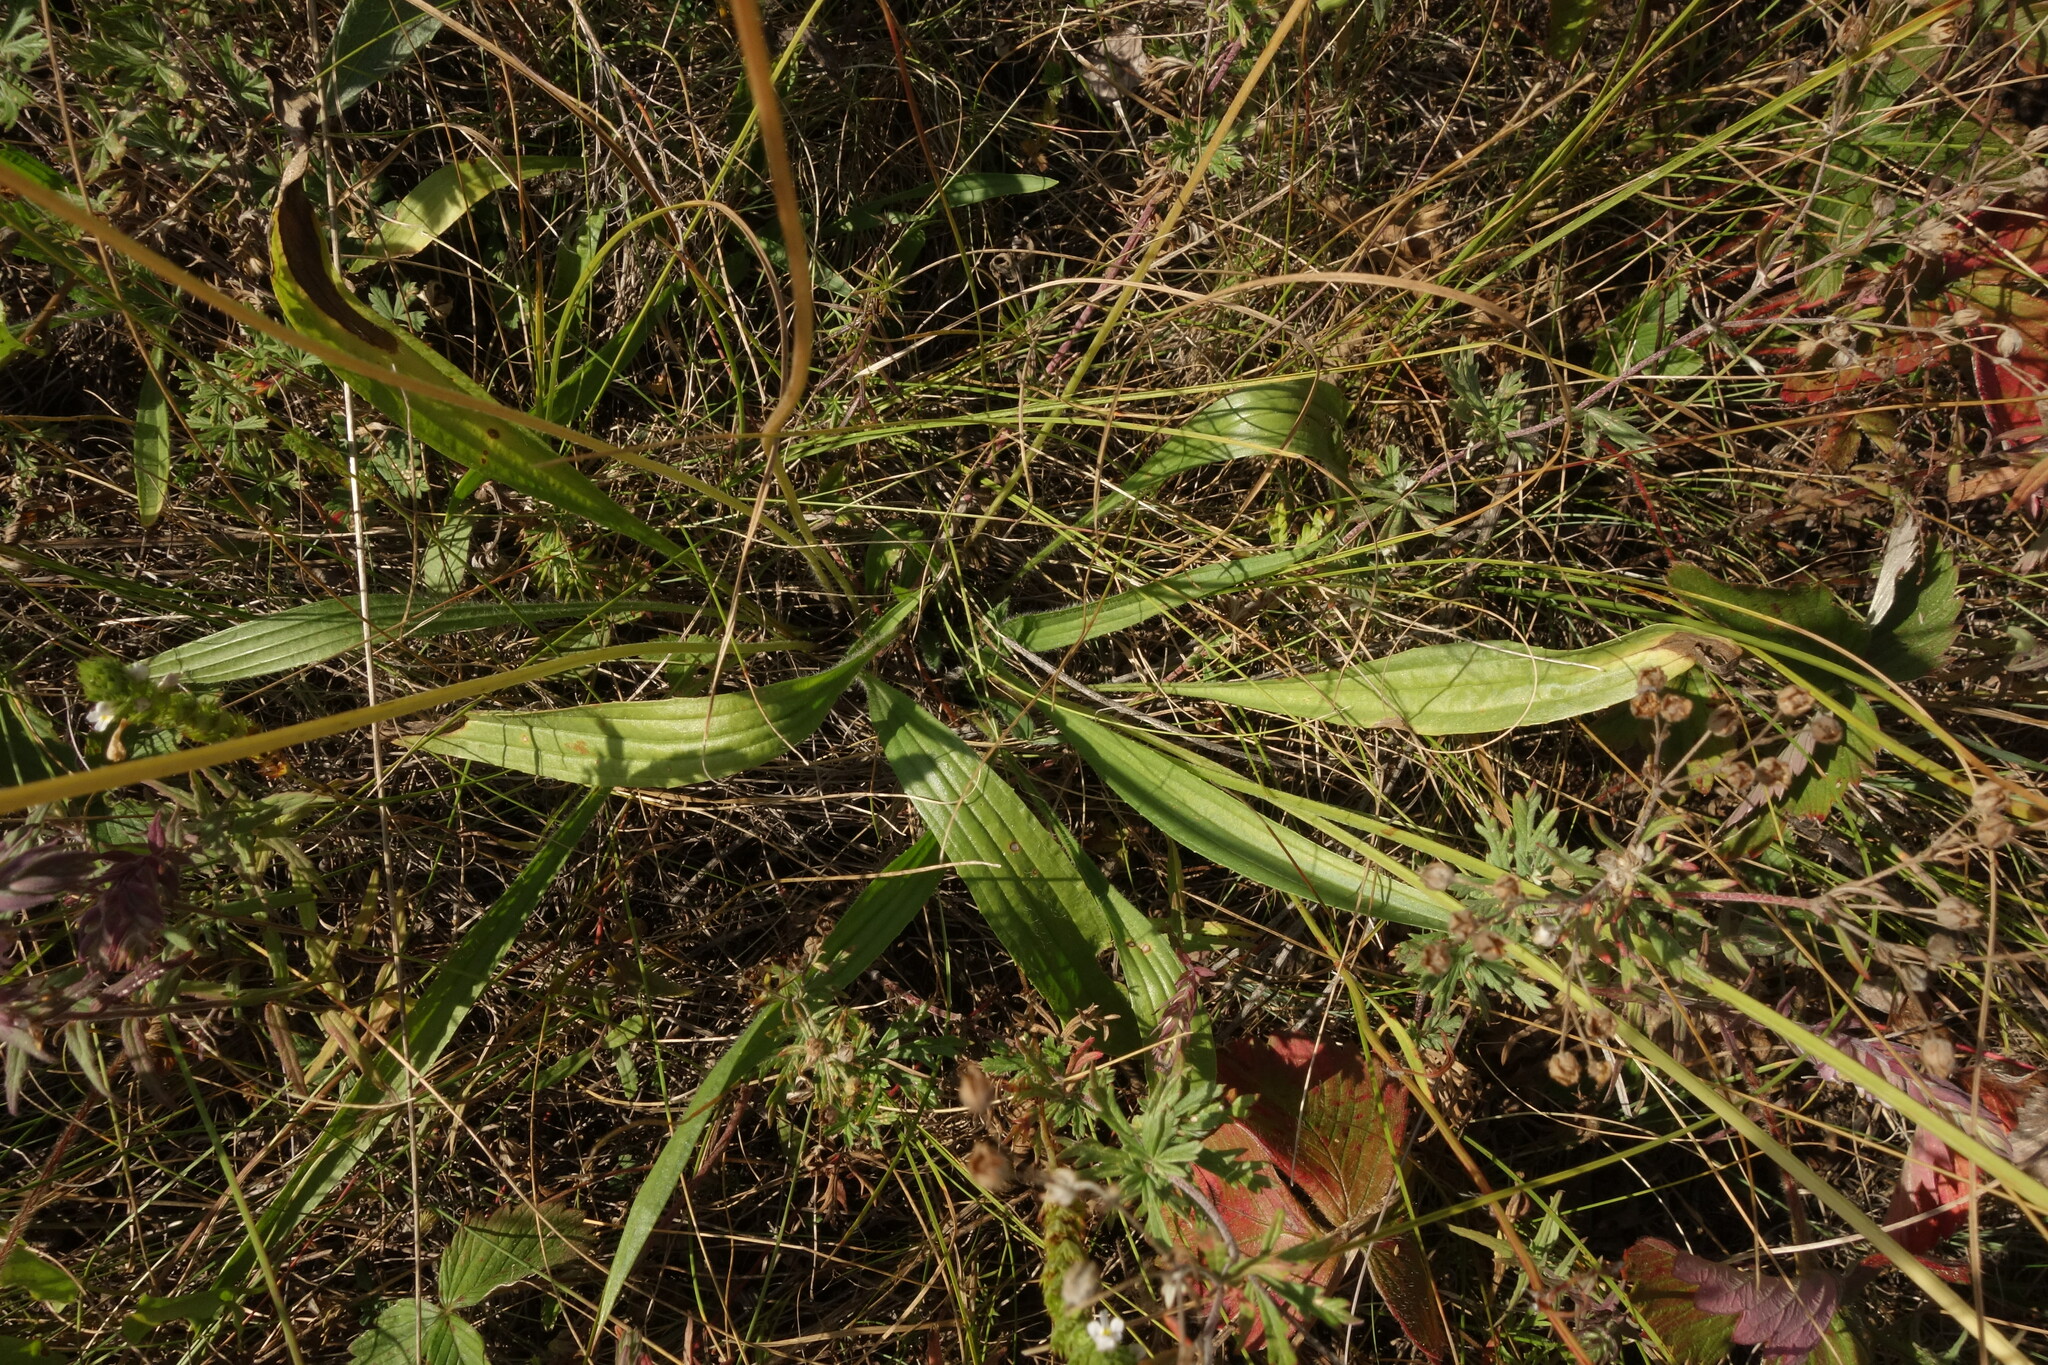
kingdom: Plantae
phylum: Tracheophyta
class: Magnoliopsida
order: Lamiales
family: Plantaginaceae
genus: Plantago
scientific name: Plantago lanceolata
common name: Ribwort plantain
